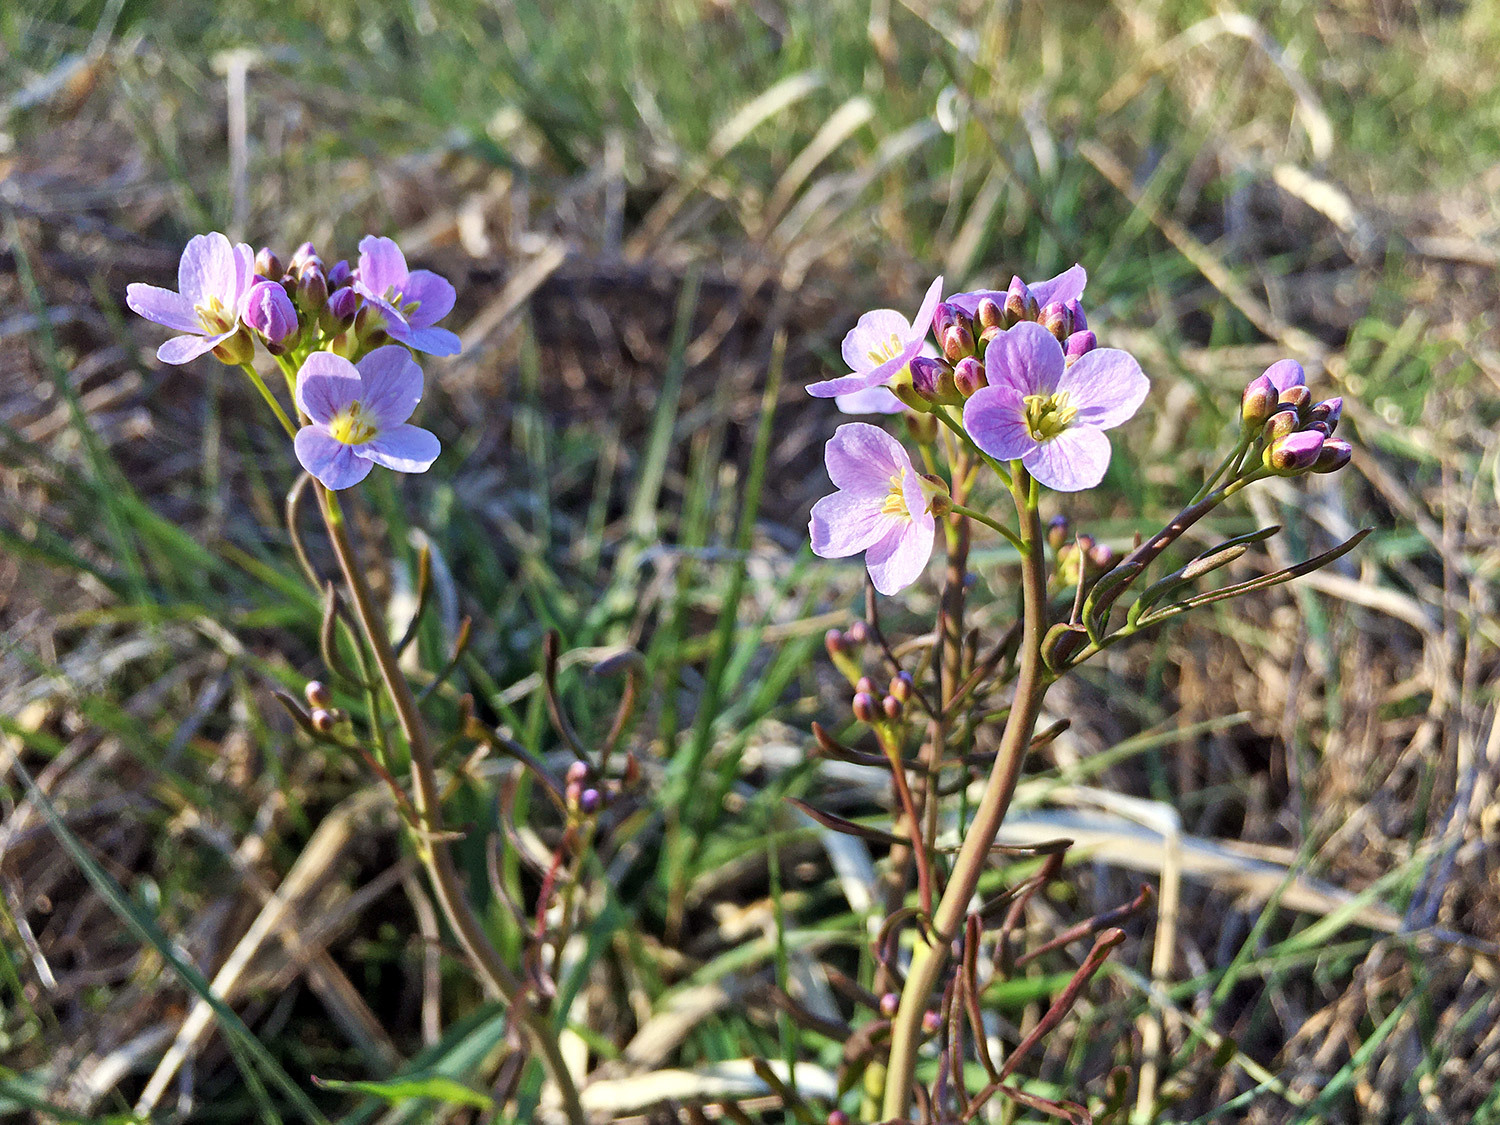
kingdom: Plantae
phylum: Tracheophyta
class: Magnoliopsida
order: Brassicales
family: Brassicaceae
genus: Cardamine
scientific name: Cardamine pratensis
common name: Cuckoo flower
